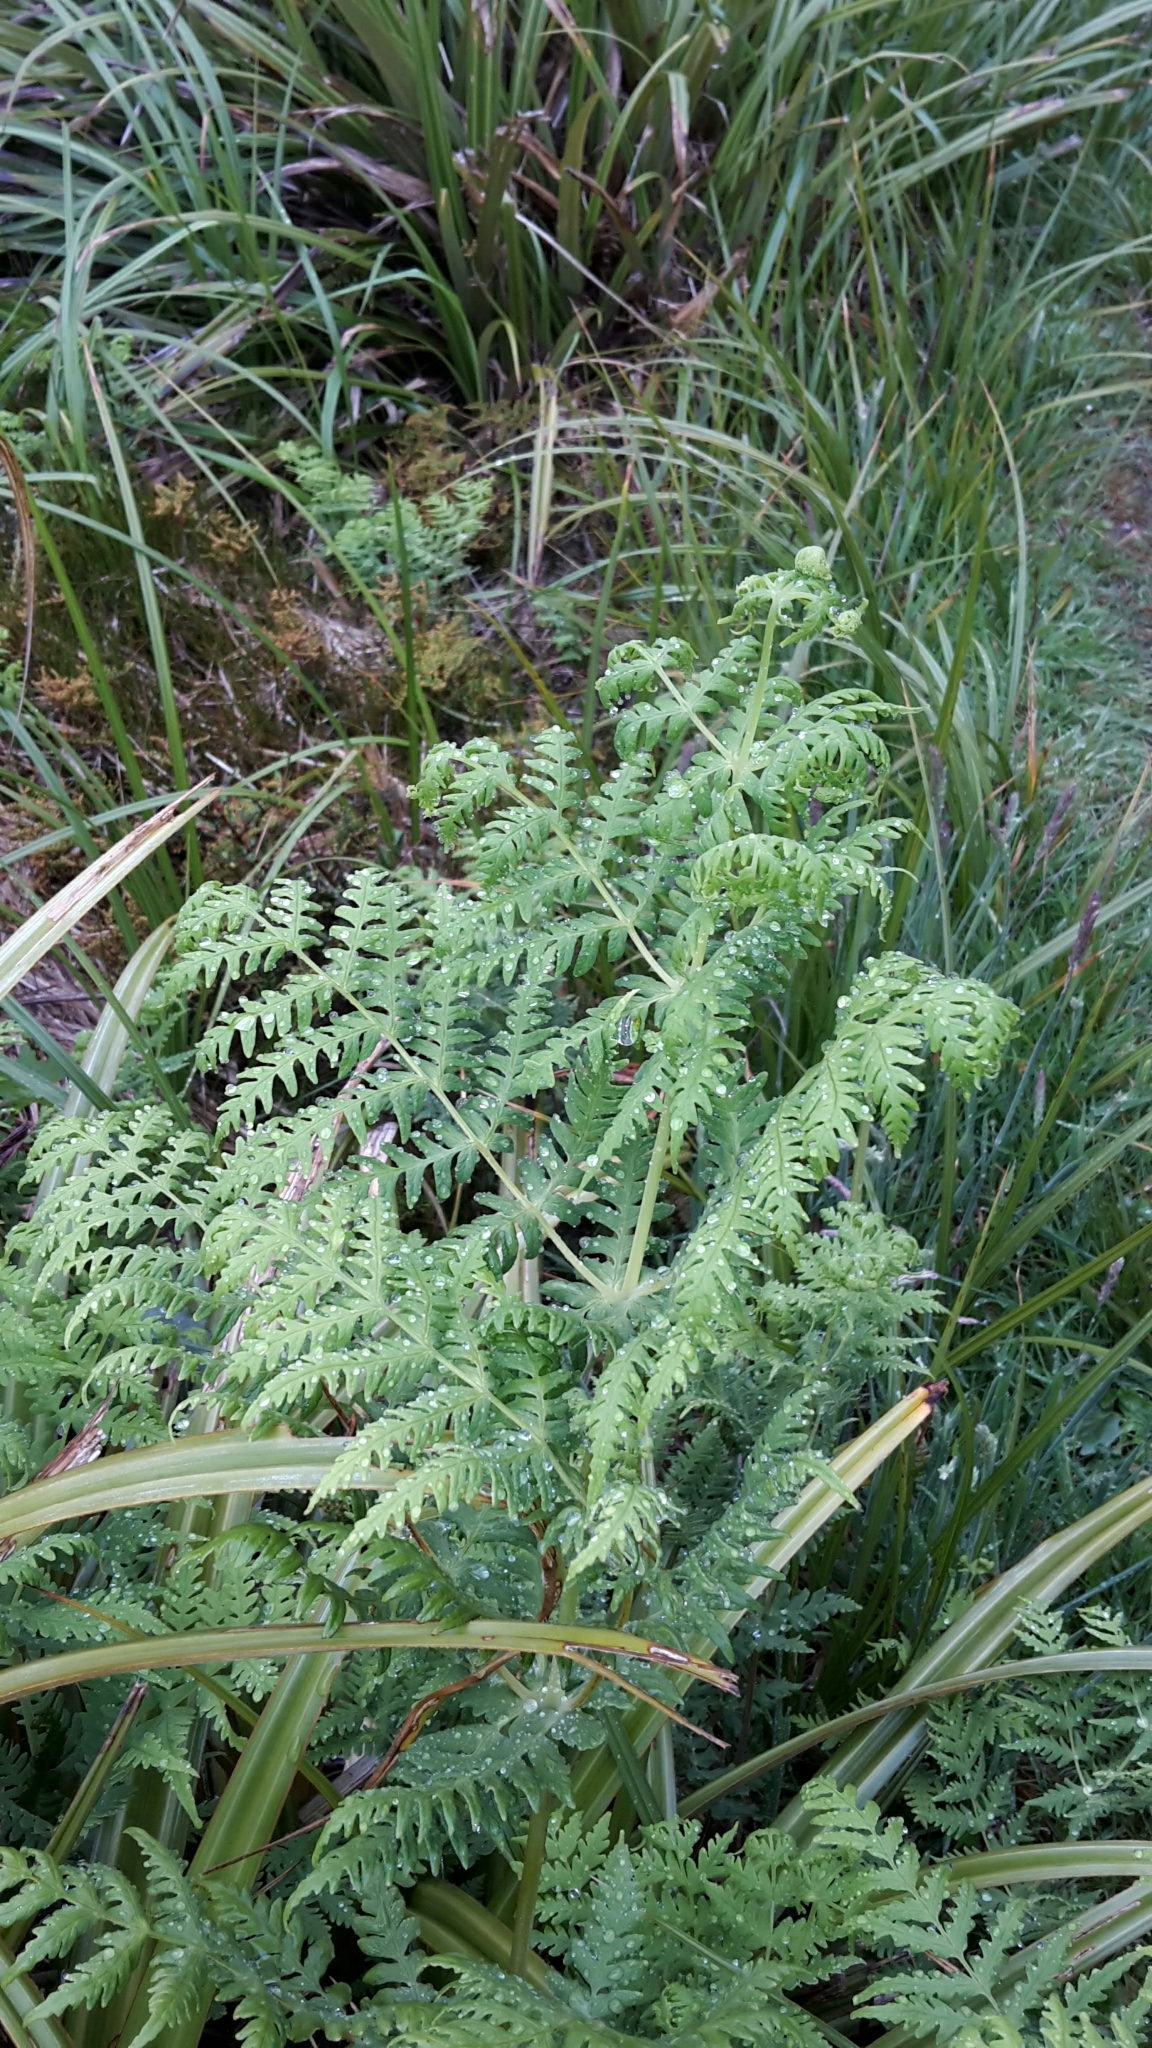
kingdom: Plantae
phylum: Tracheophyta
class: Polypodiopsida
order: Polypodiales
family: Dennstaedtiaceae
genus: Histiopteris
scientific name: Histiopteris incisa
